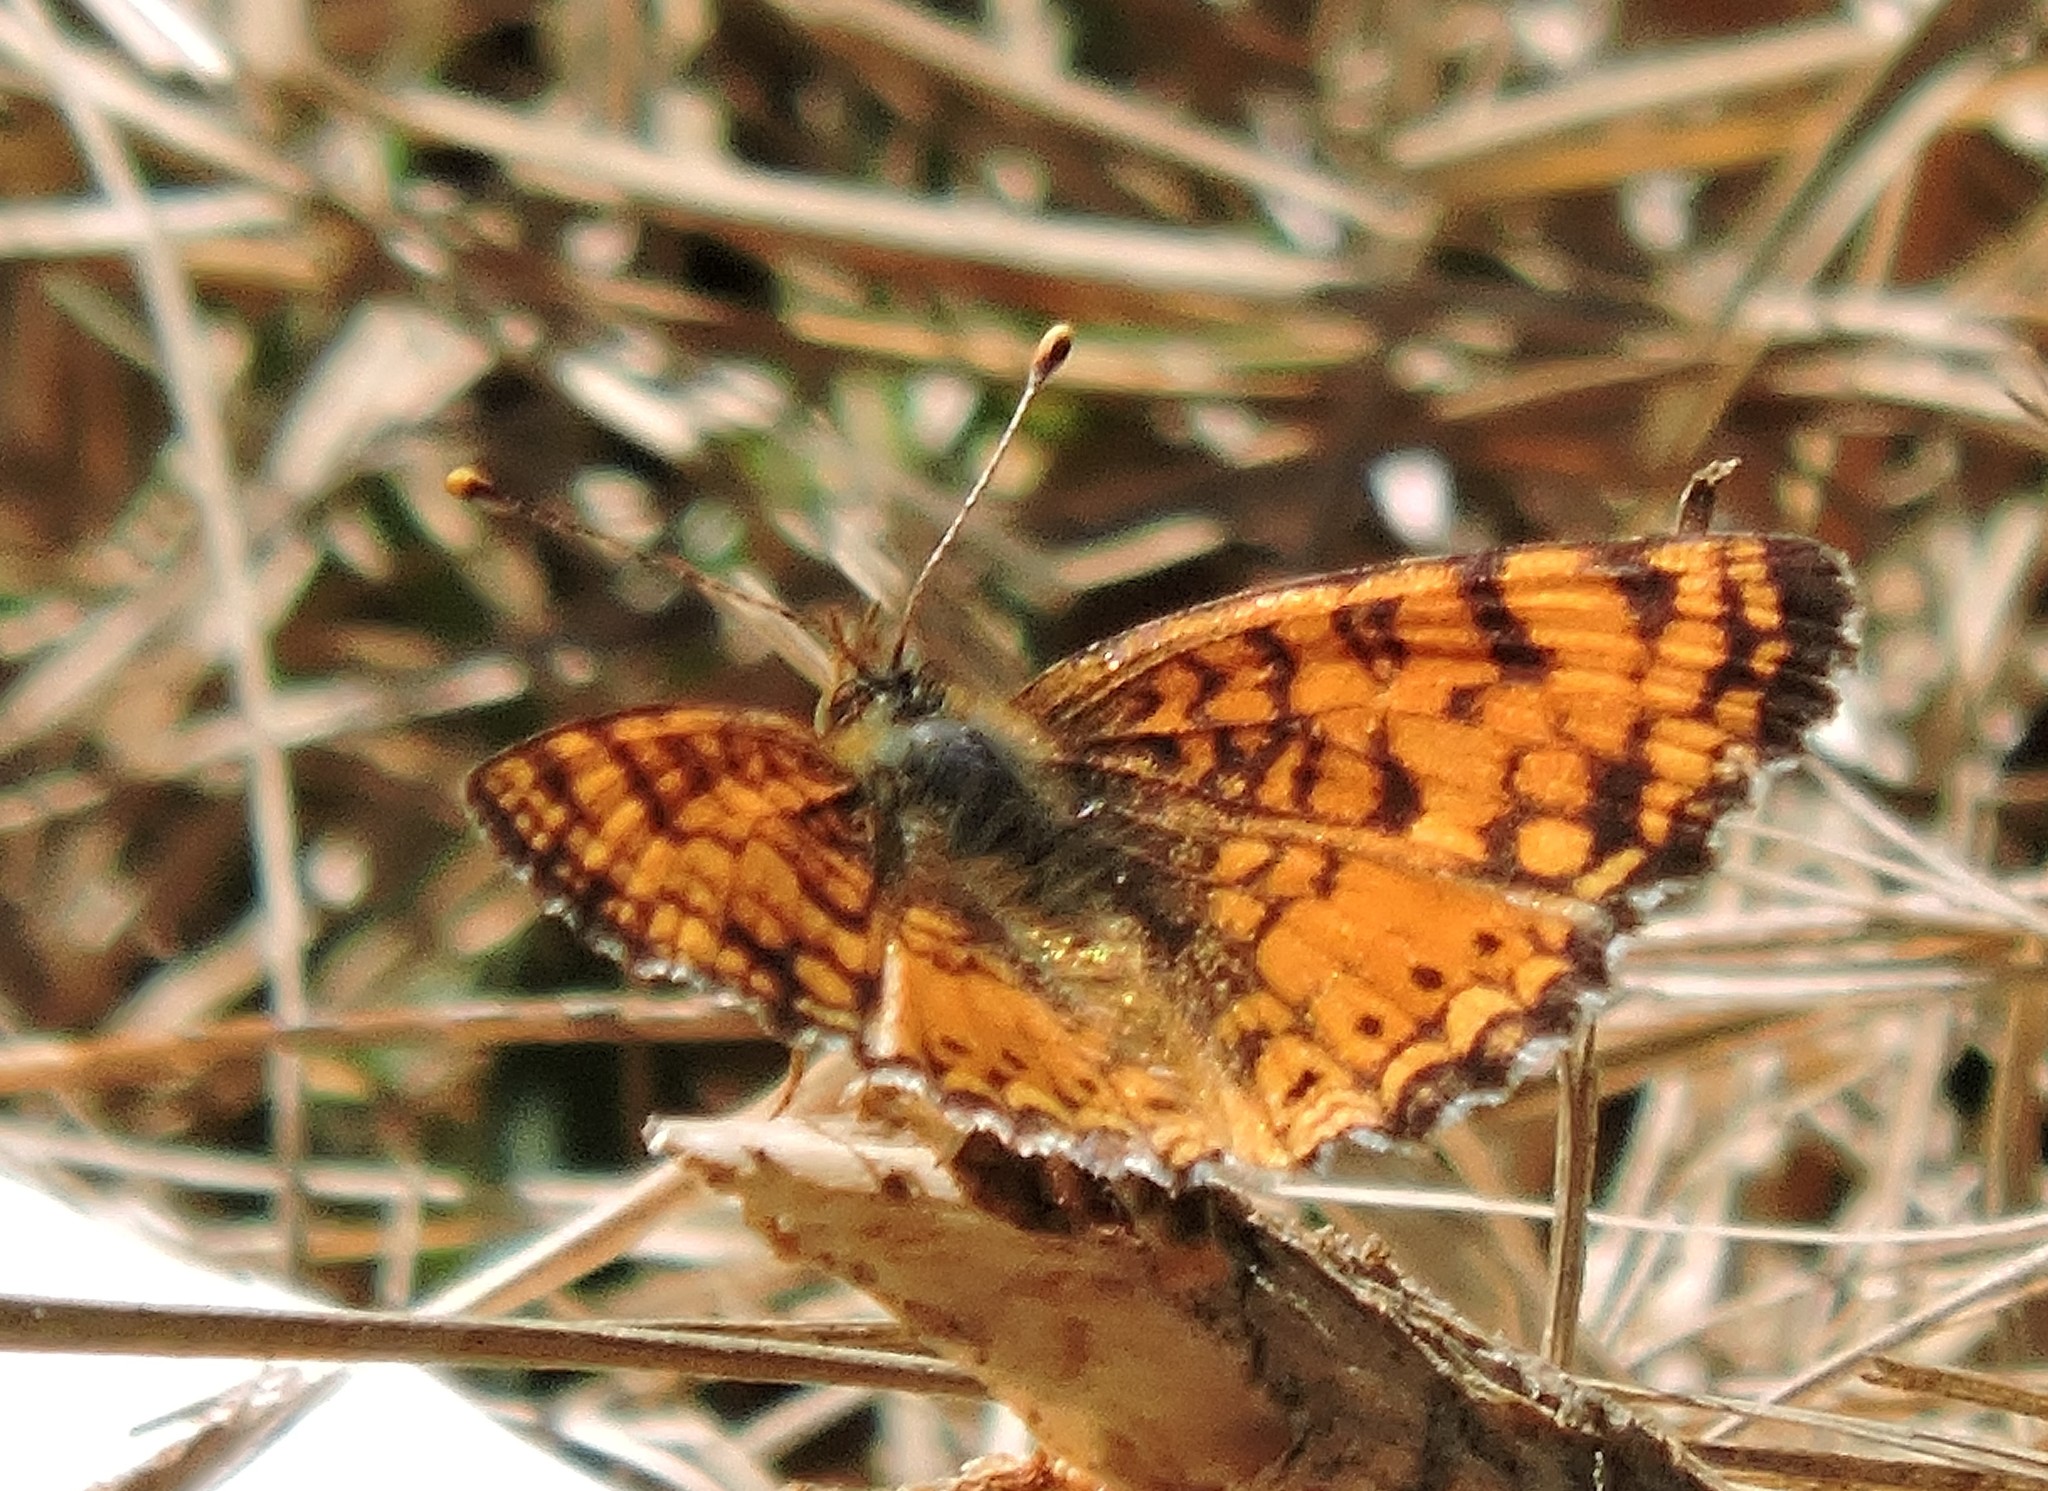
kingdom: Animalia
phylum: Arthropoda
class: Insecta
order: Lepidoptera
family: Nymphalidae
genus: Eresia
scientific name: Eresia aveyrona
